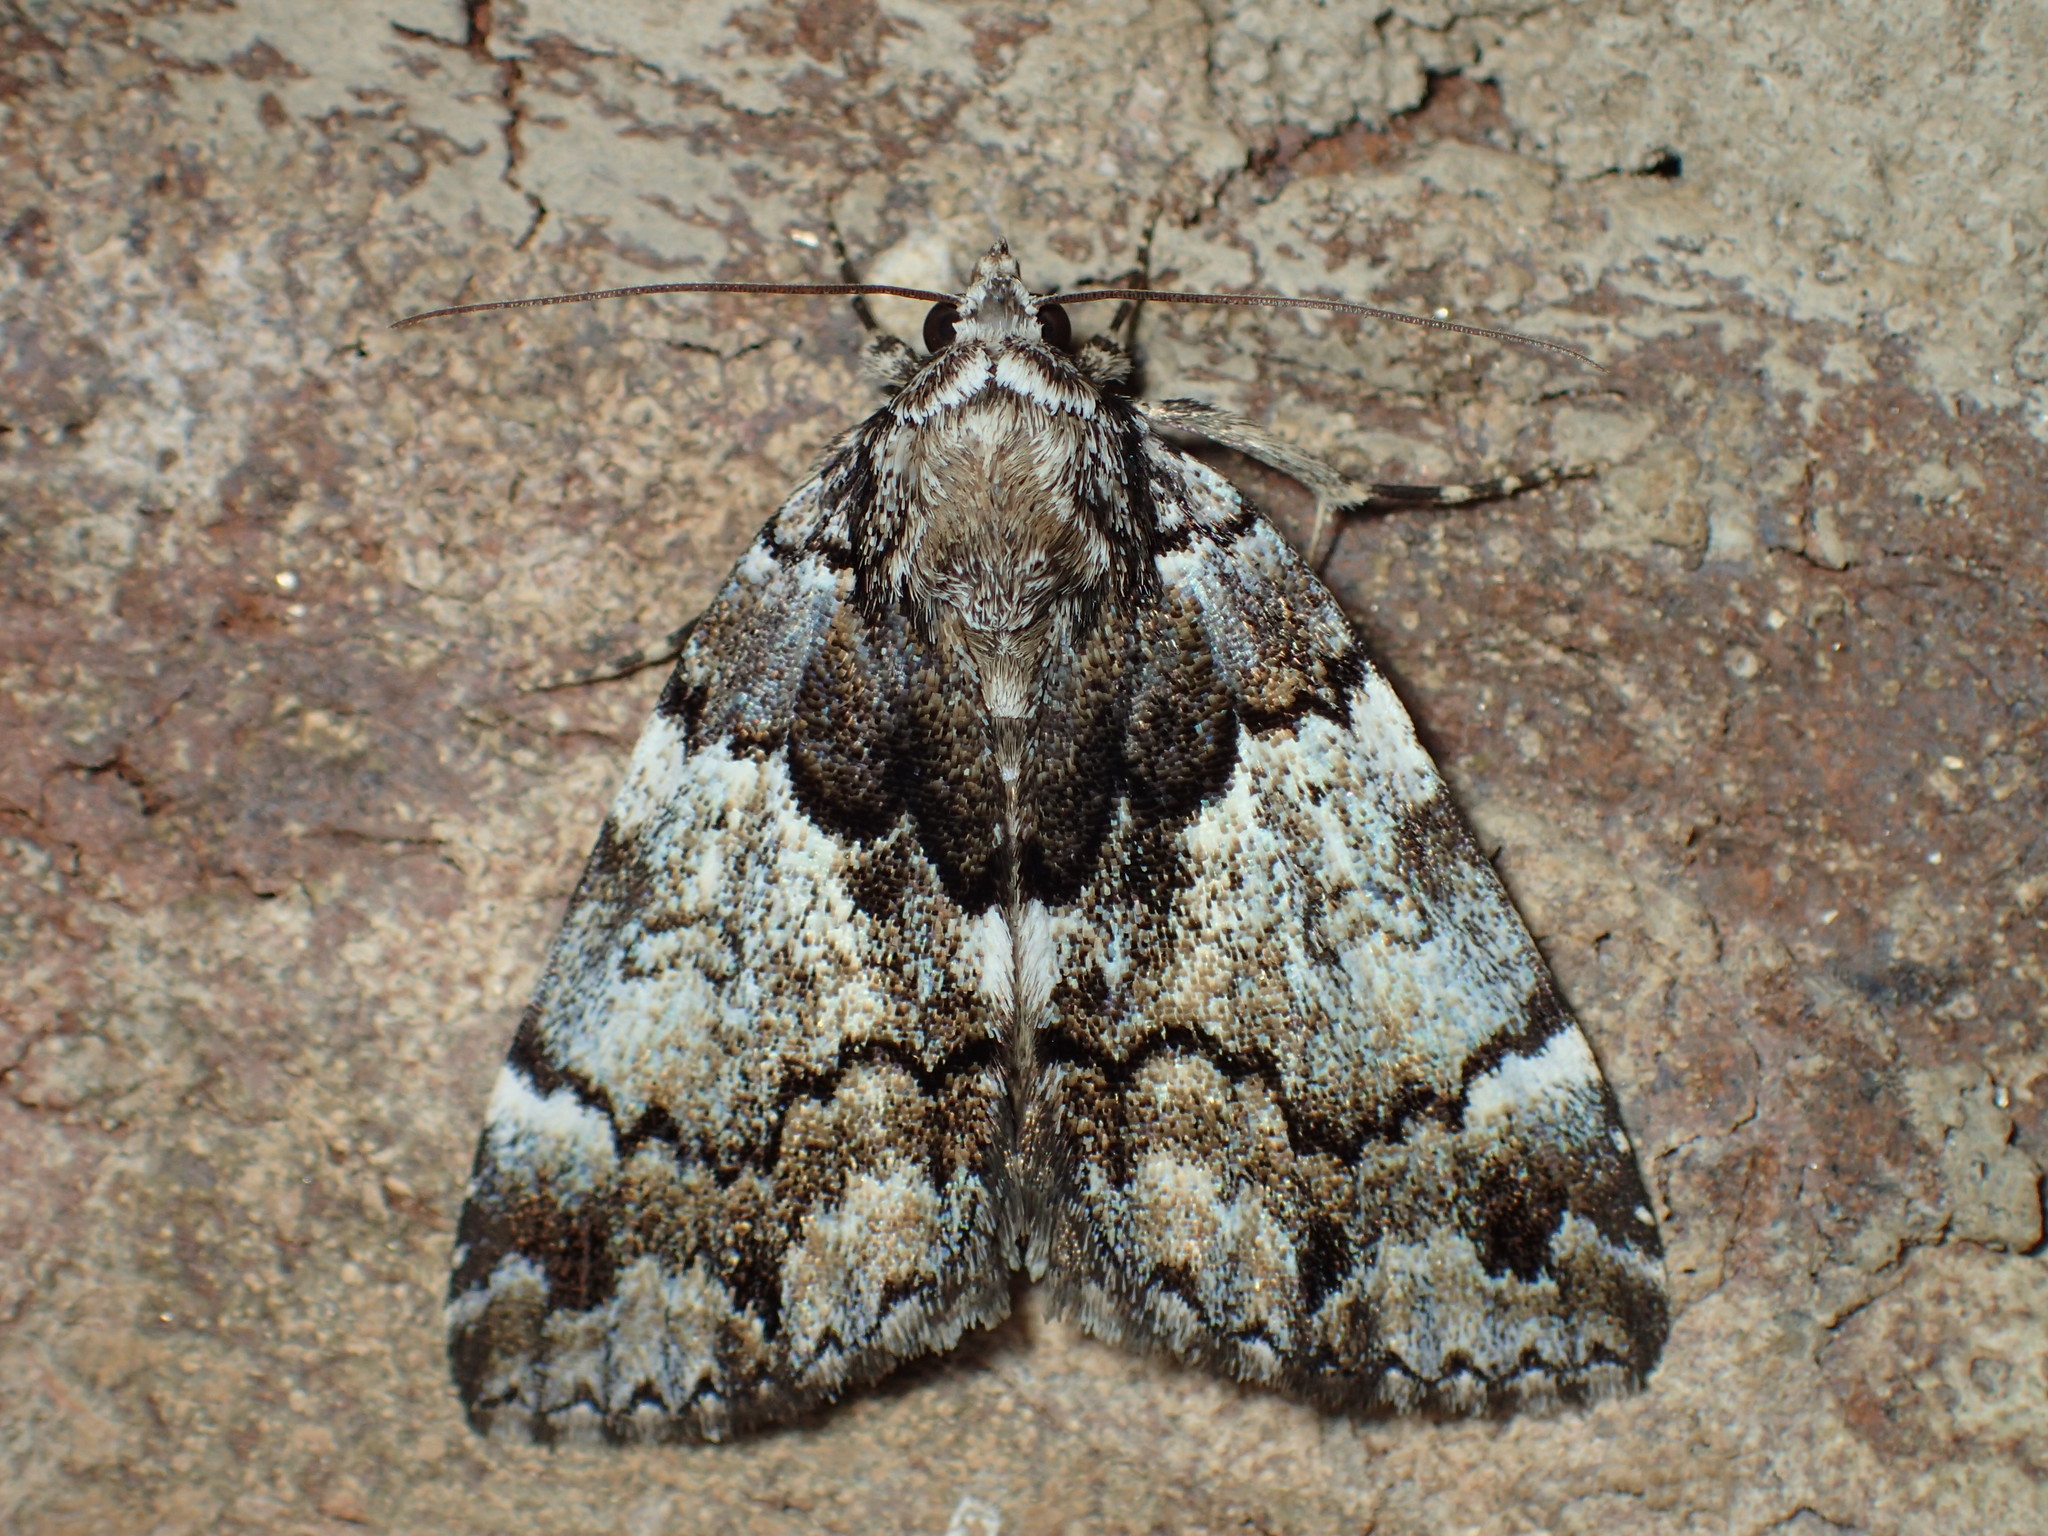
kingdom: Animalia
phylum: Arthropoda
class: Insecta
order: Lepidoptera
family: Erebidae
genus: Allotria
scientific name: Allotria elonympha
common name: False underwing
